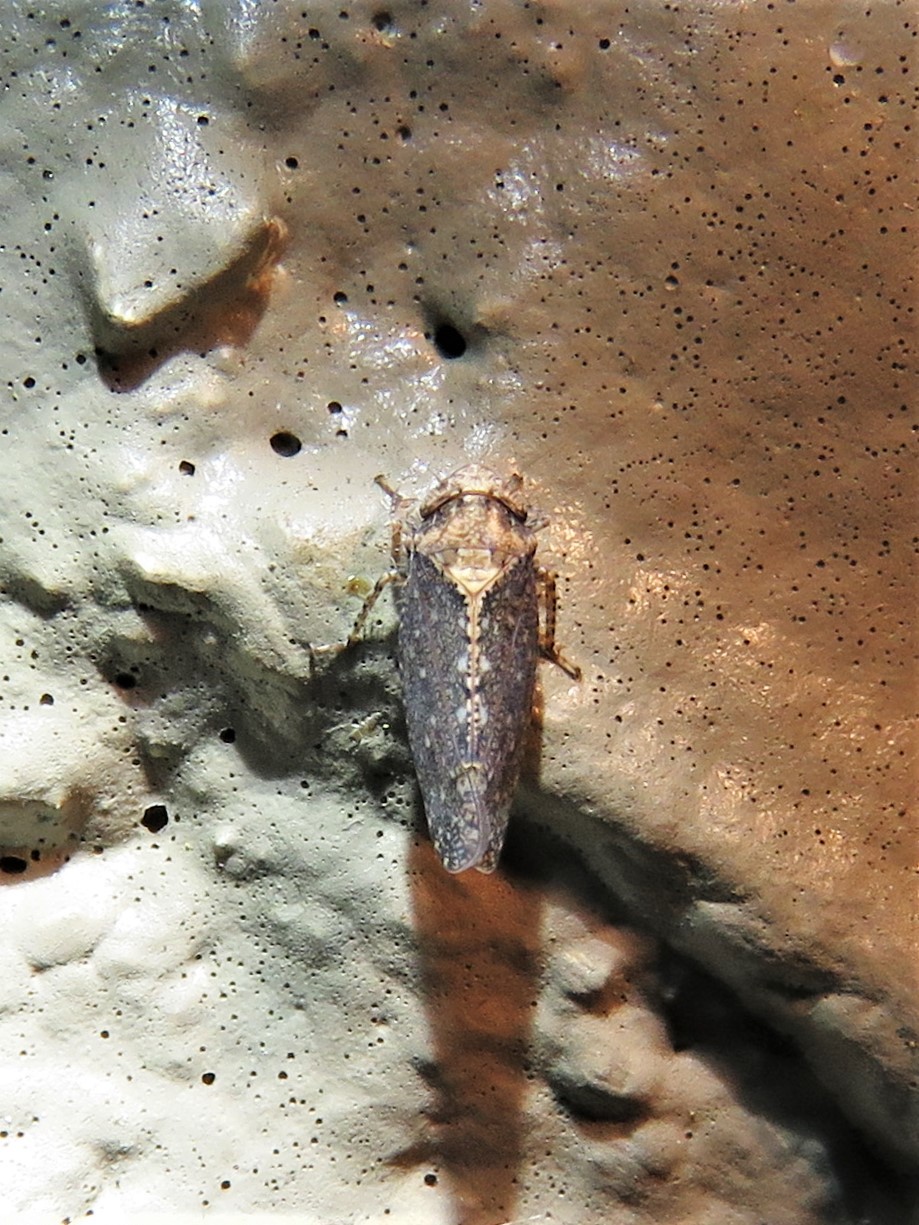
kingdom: Animalia
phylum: Arthropoda
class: Insecta
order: Hemiptera
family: Cicadellidae
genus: Excultanus
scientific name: Excultanus excultus
